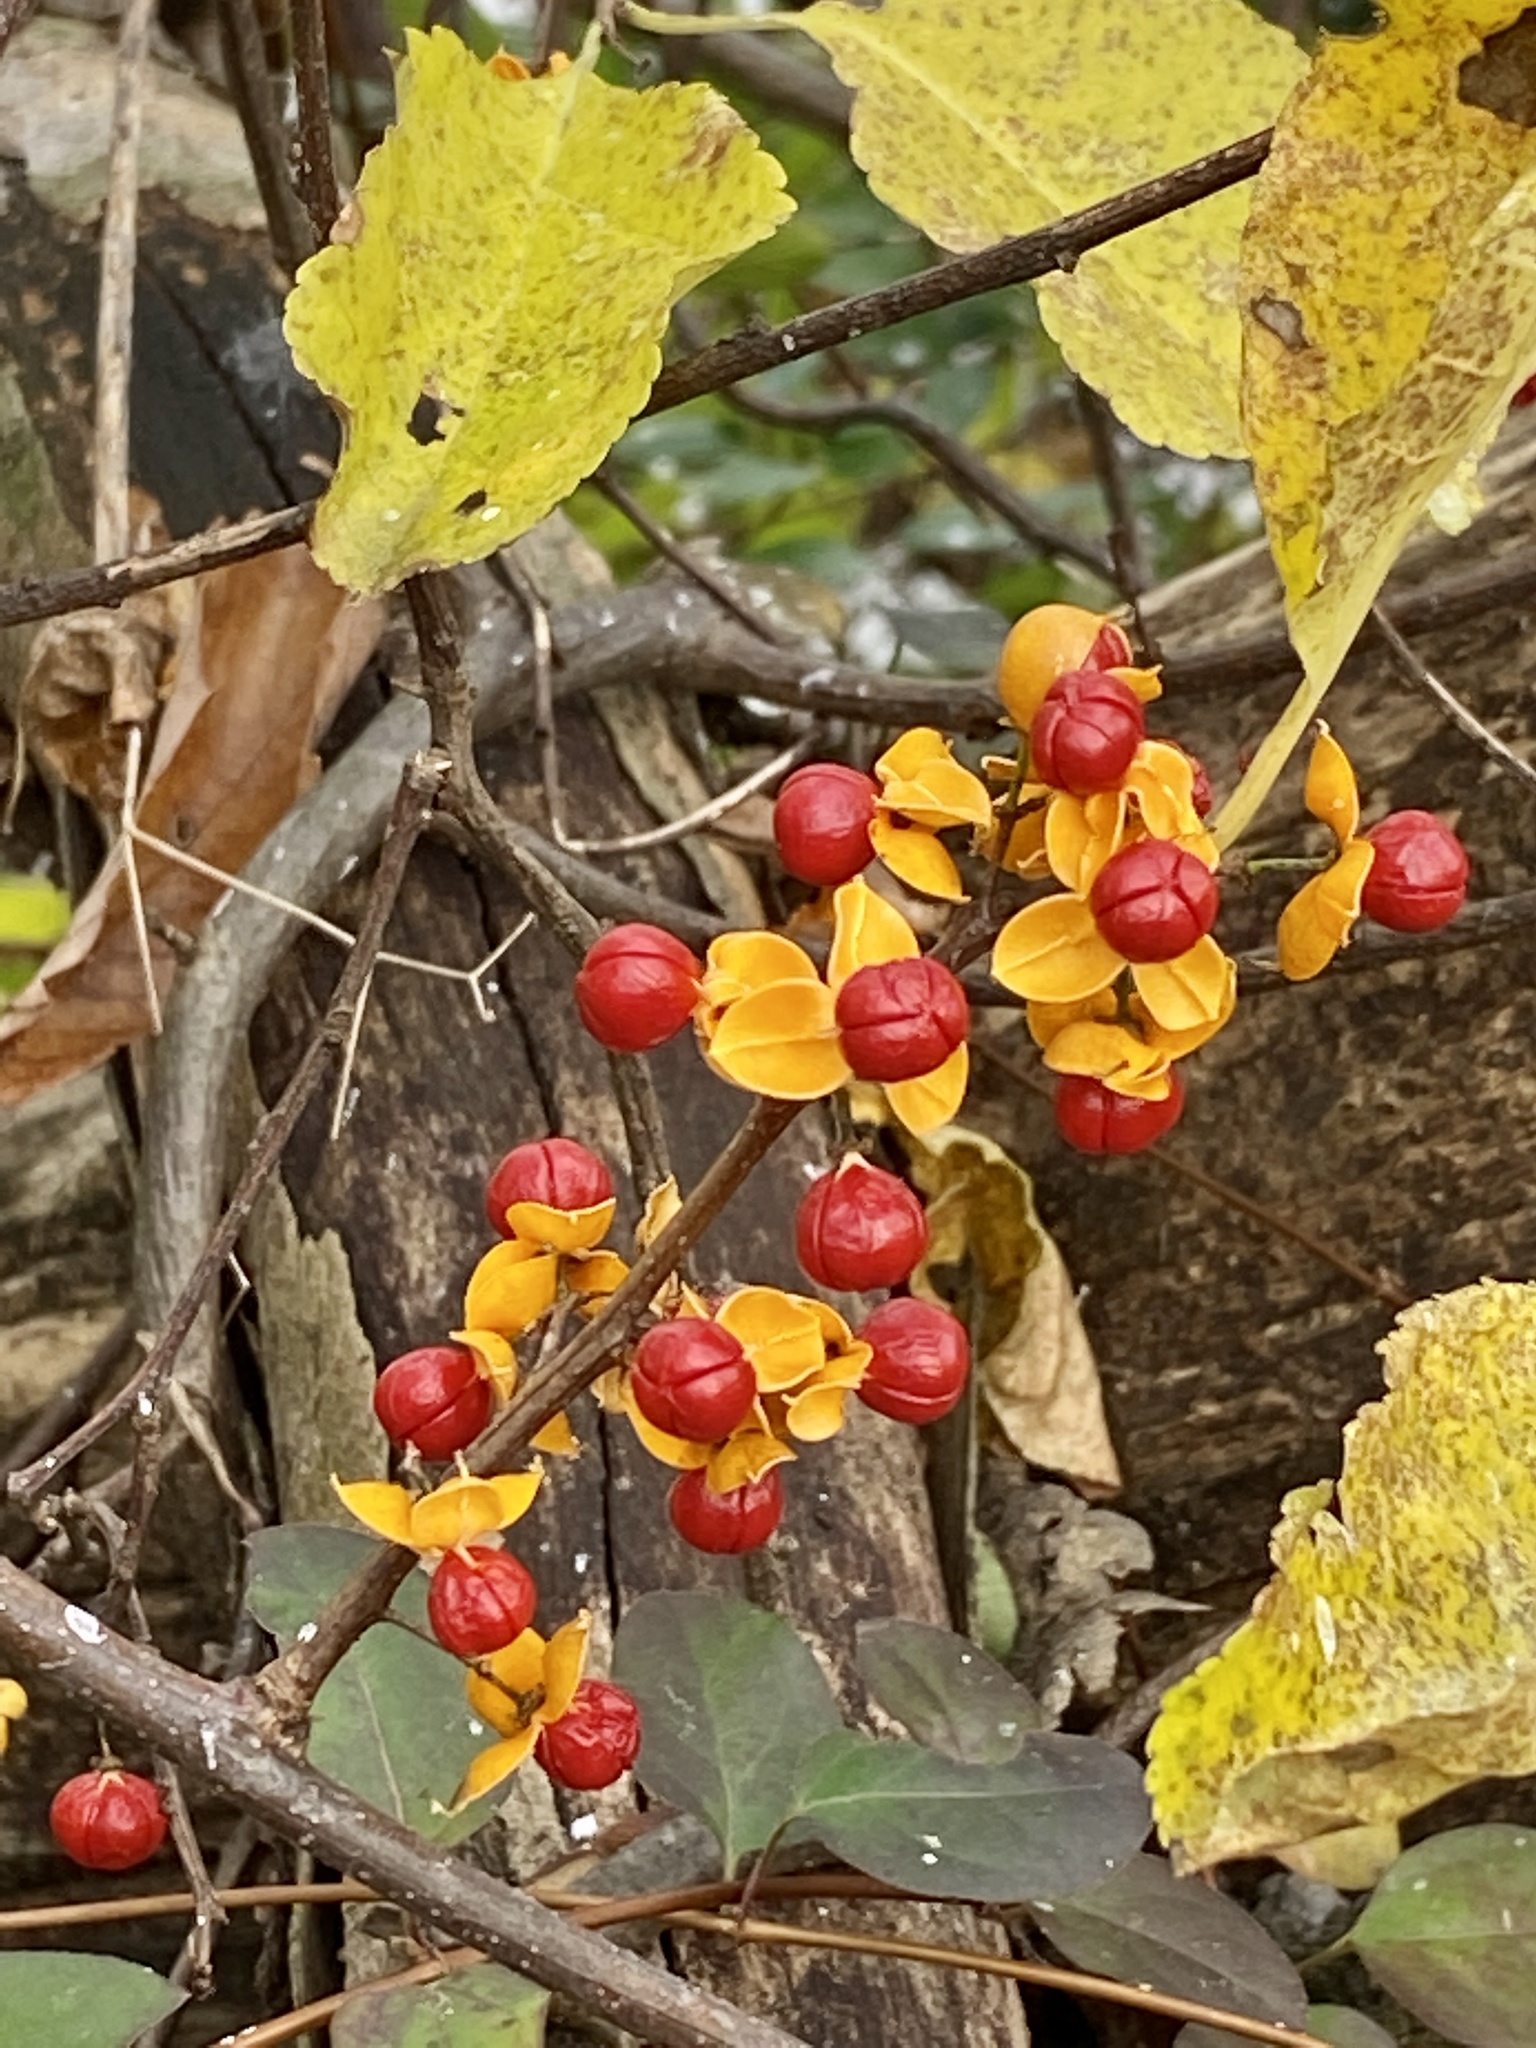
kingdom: Plantae
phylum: Tracheophyta
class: Magnoliopsida
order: Celastrales
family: Celastraceae
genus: Celastrus
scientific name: Celastrus orbiculatus
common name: Oriental bittersweet
